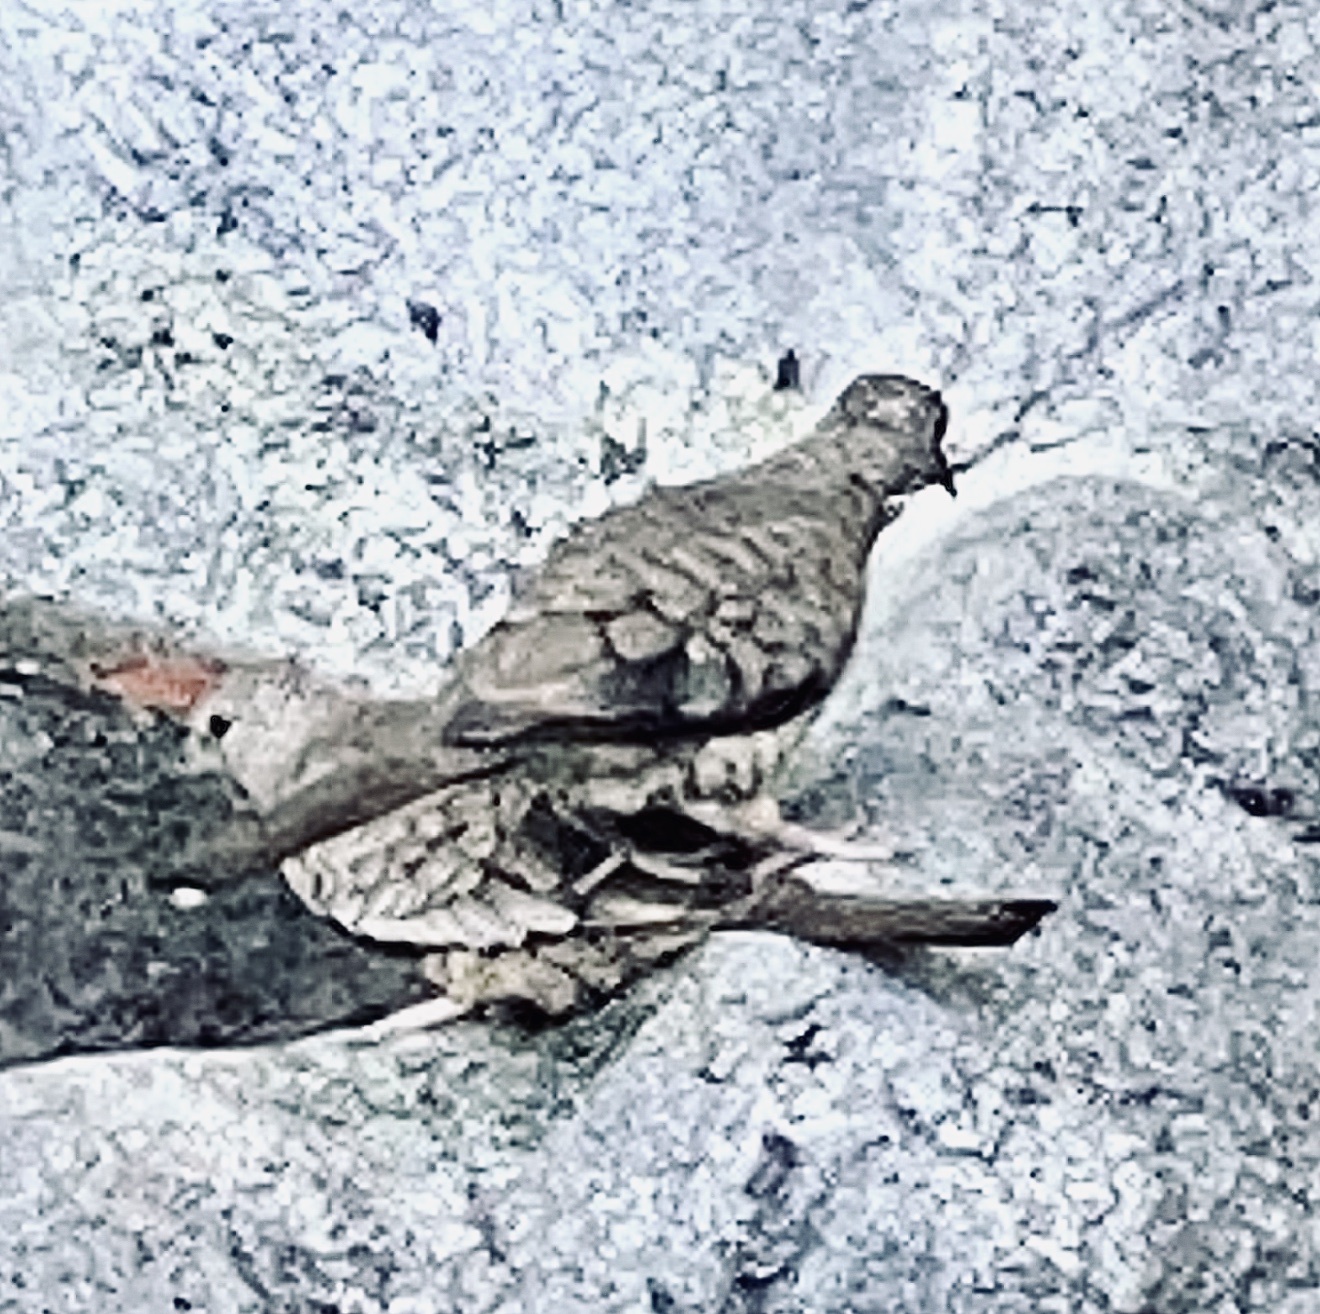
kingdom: Animalia
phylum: Chordata
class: Aves
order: Columbiformes
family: Columbidae
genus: Columbina
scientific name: Columbina inca
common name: Inca dove
